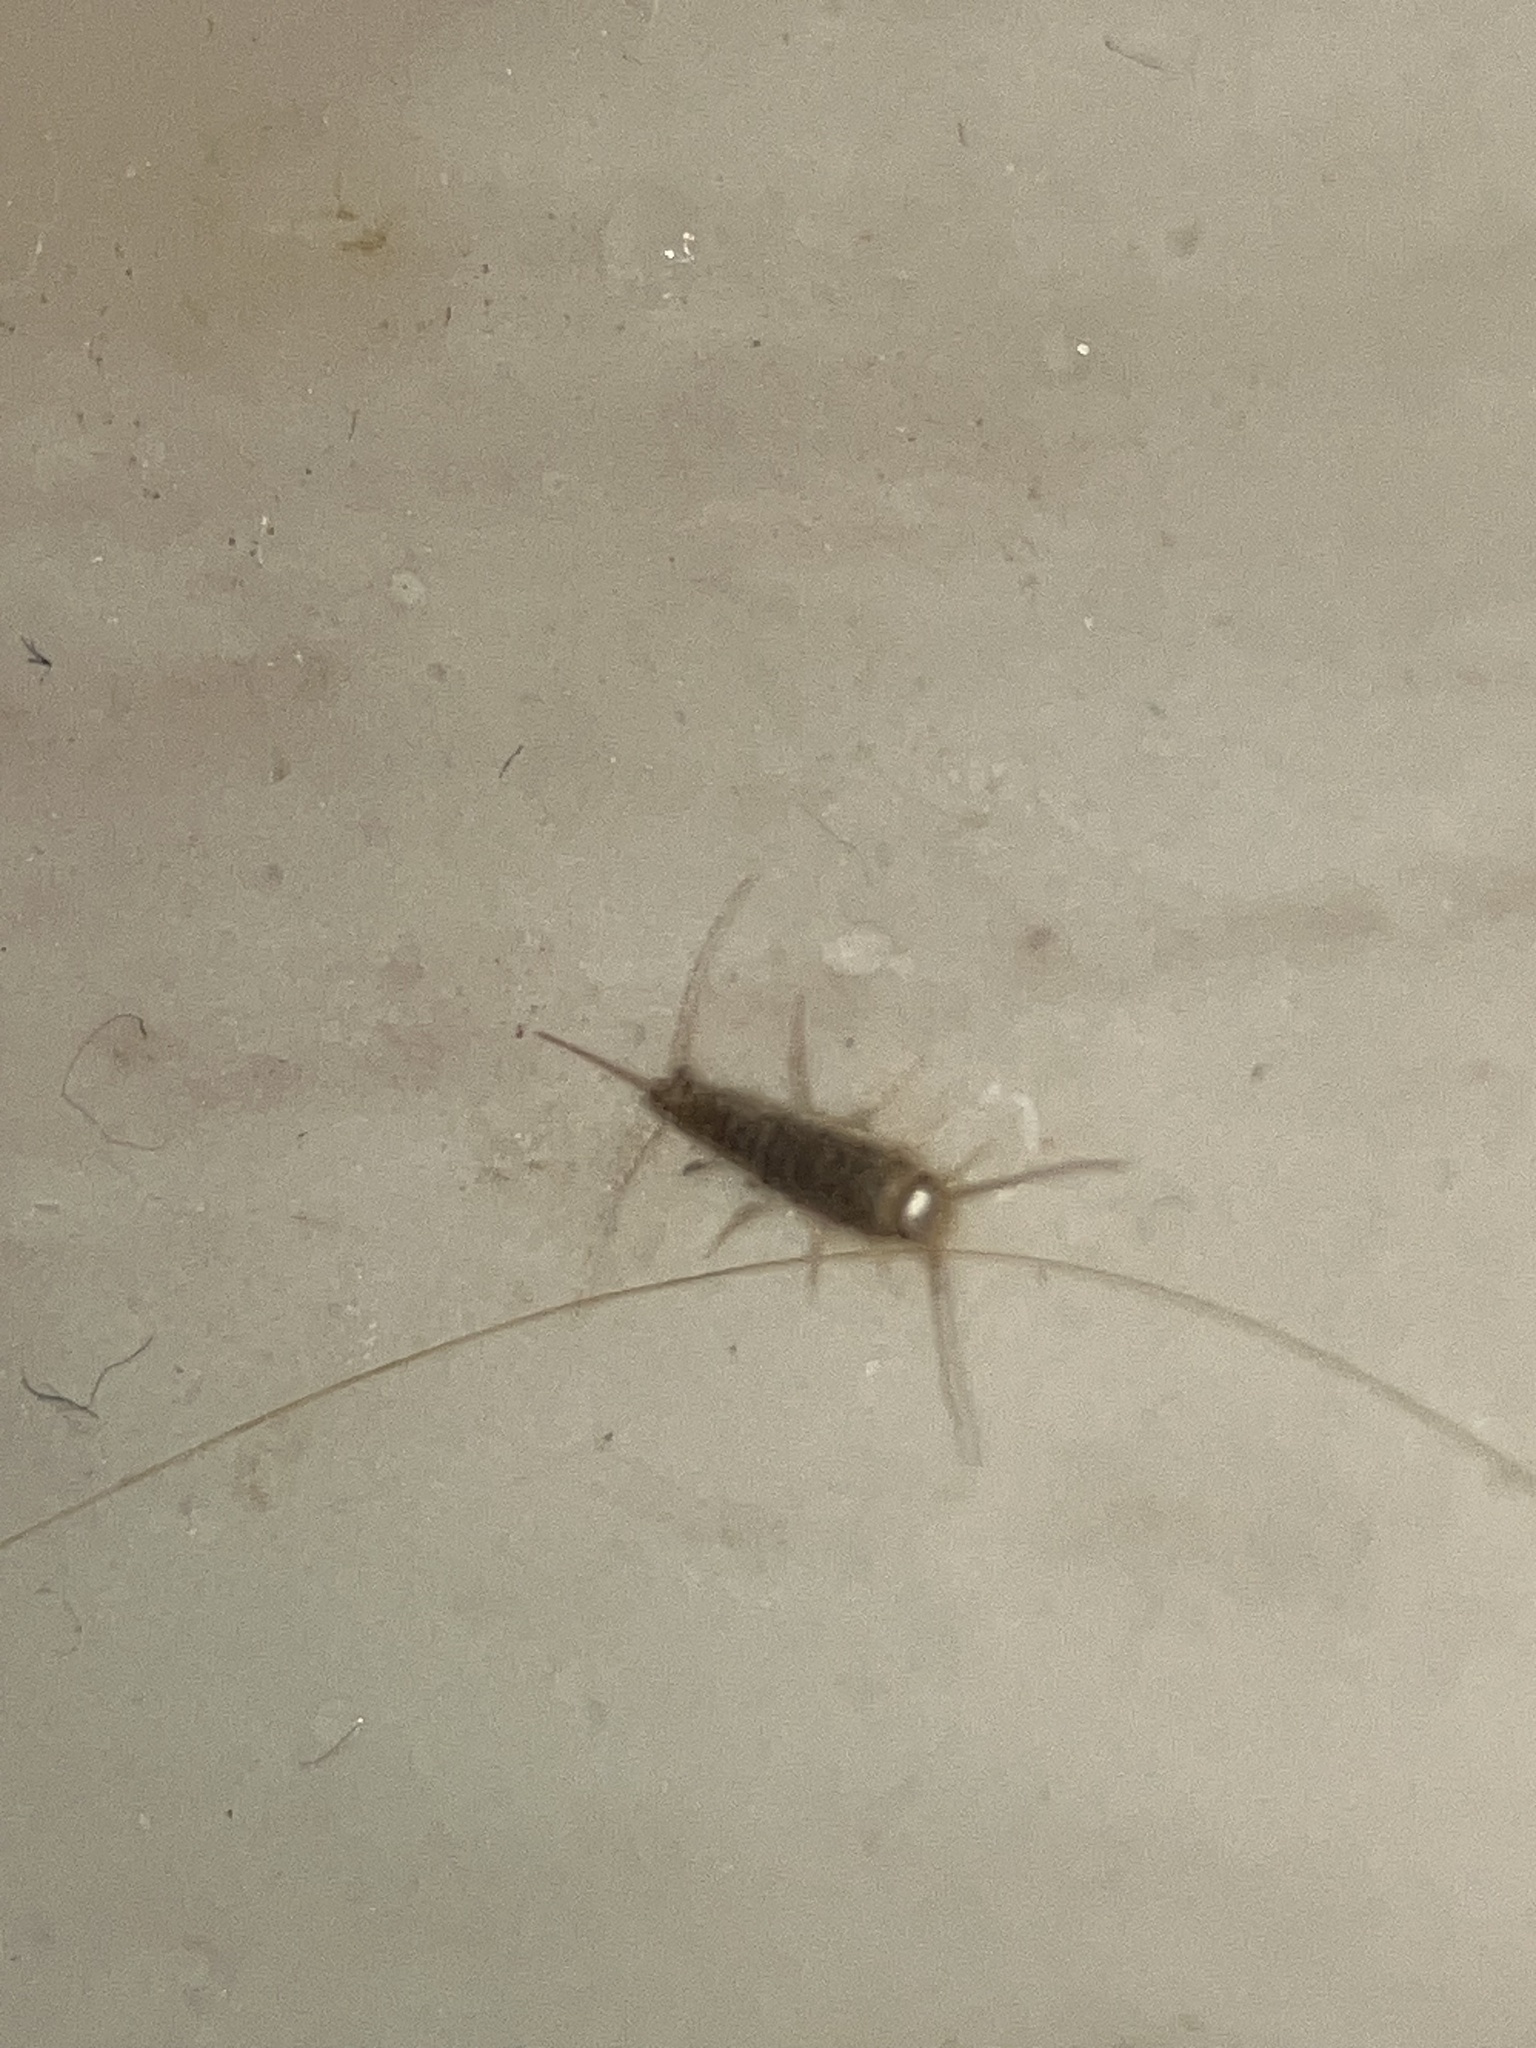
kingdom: Animalia
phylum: Arthropoda
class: Insecta
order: Zygentoma
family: Lepismatidae
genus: Ctenolepisma
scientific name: Ctenolepisma
